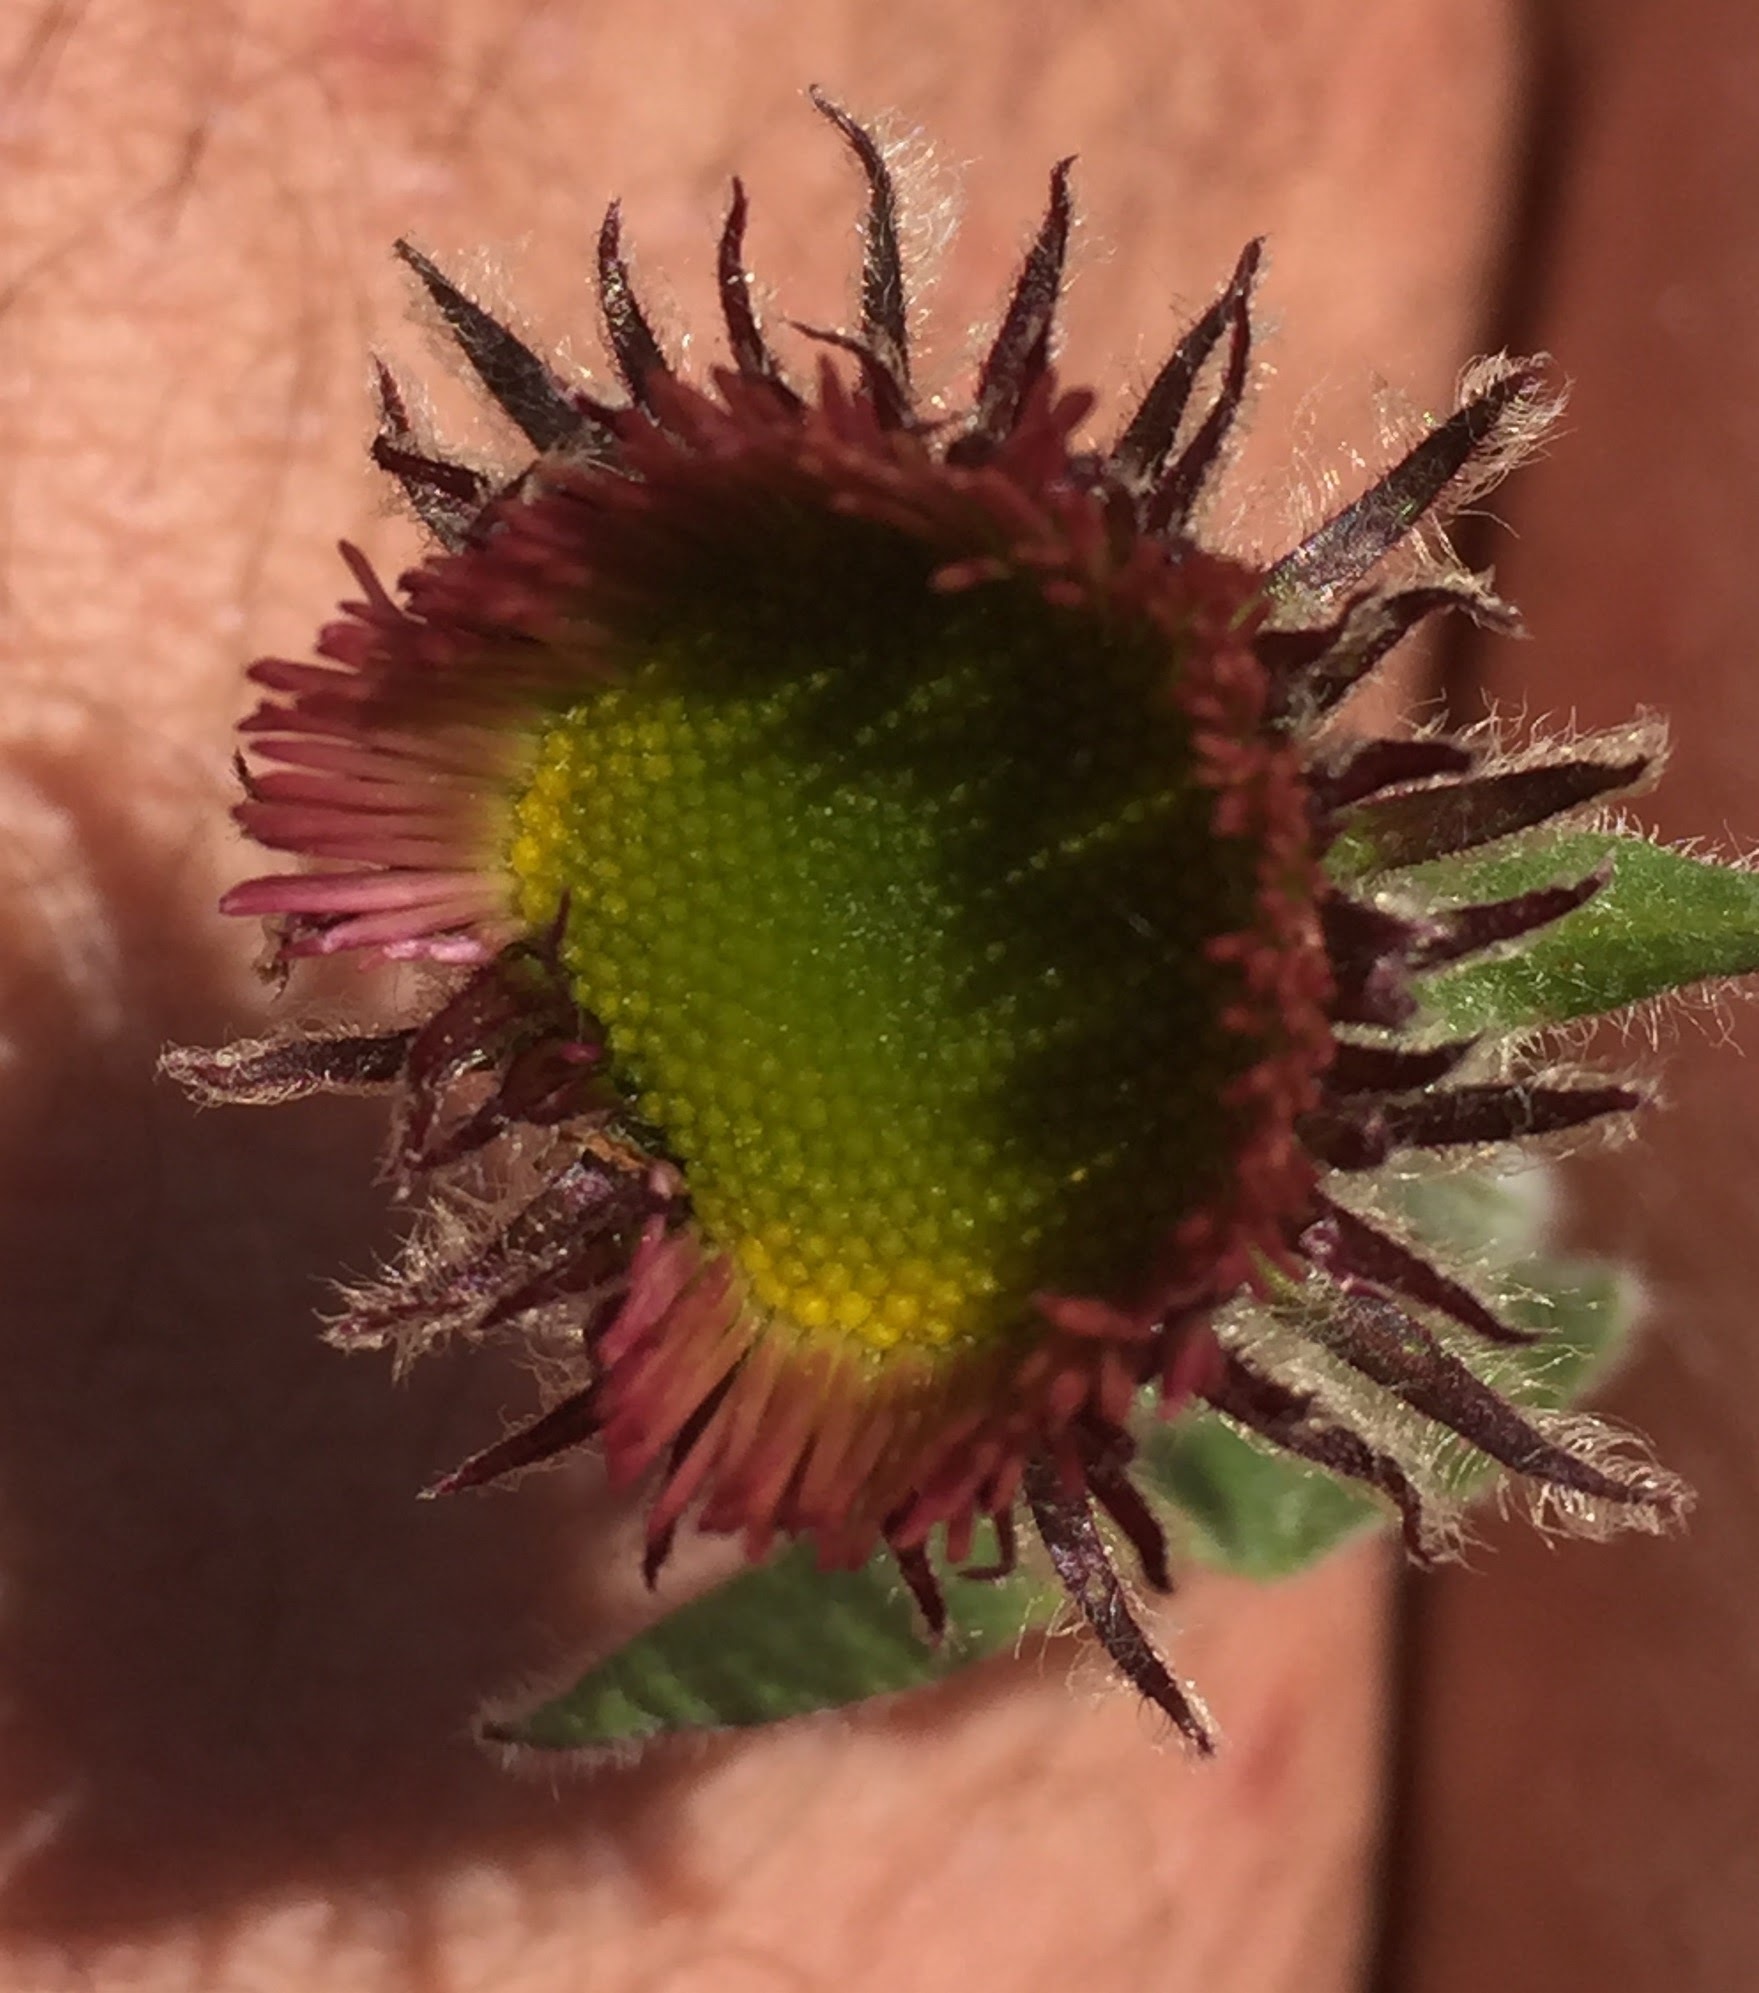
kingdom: Plantae
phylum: Tracheophyta
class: Magnoliopsida
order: Asterales
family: Asteraceae
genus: Erigeron
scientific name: Erigeron acris
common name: Blue fleabane
